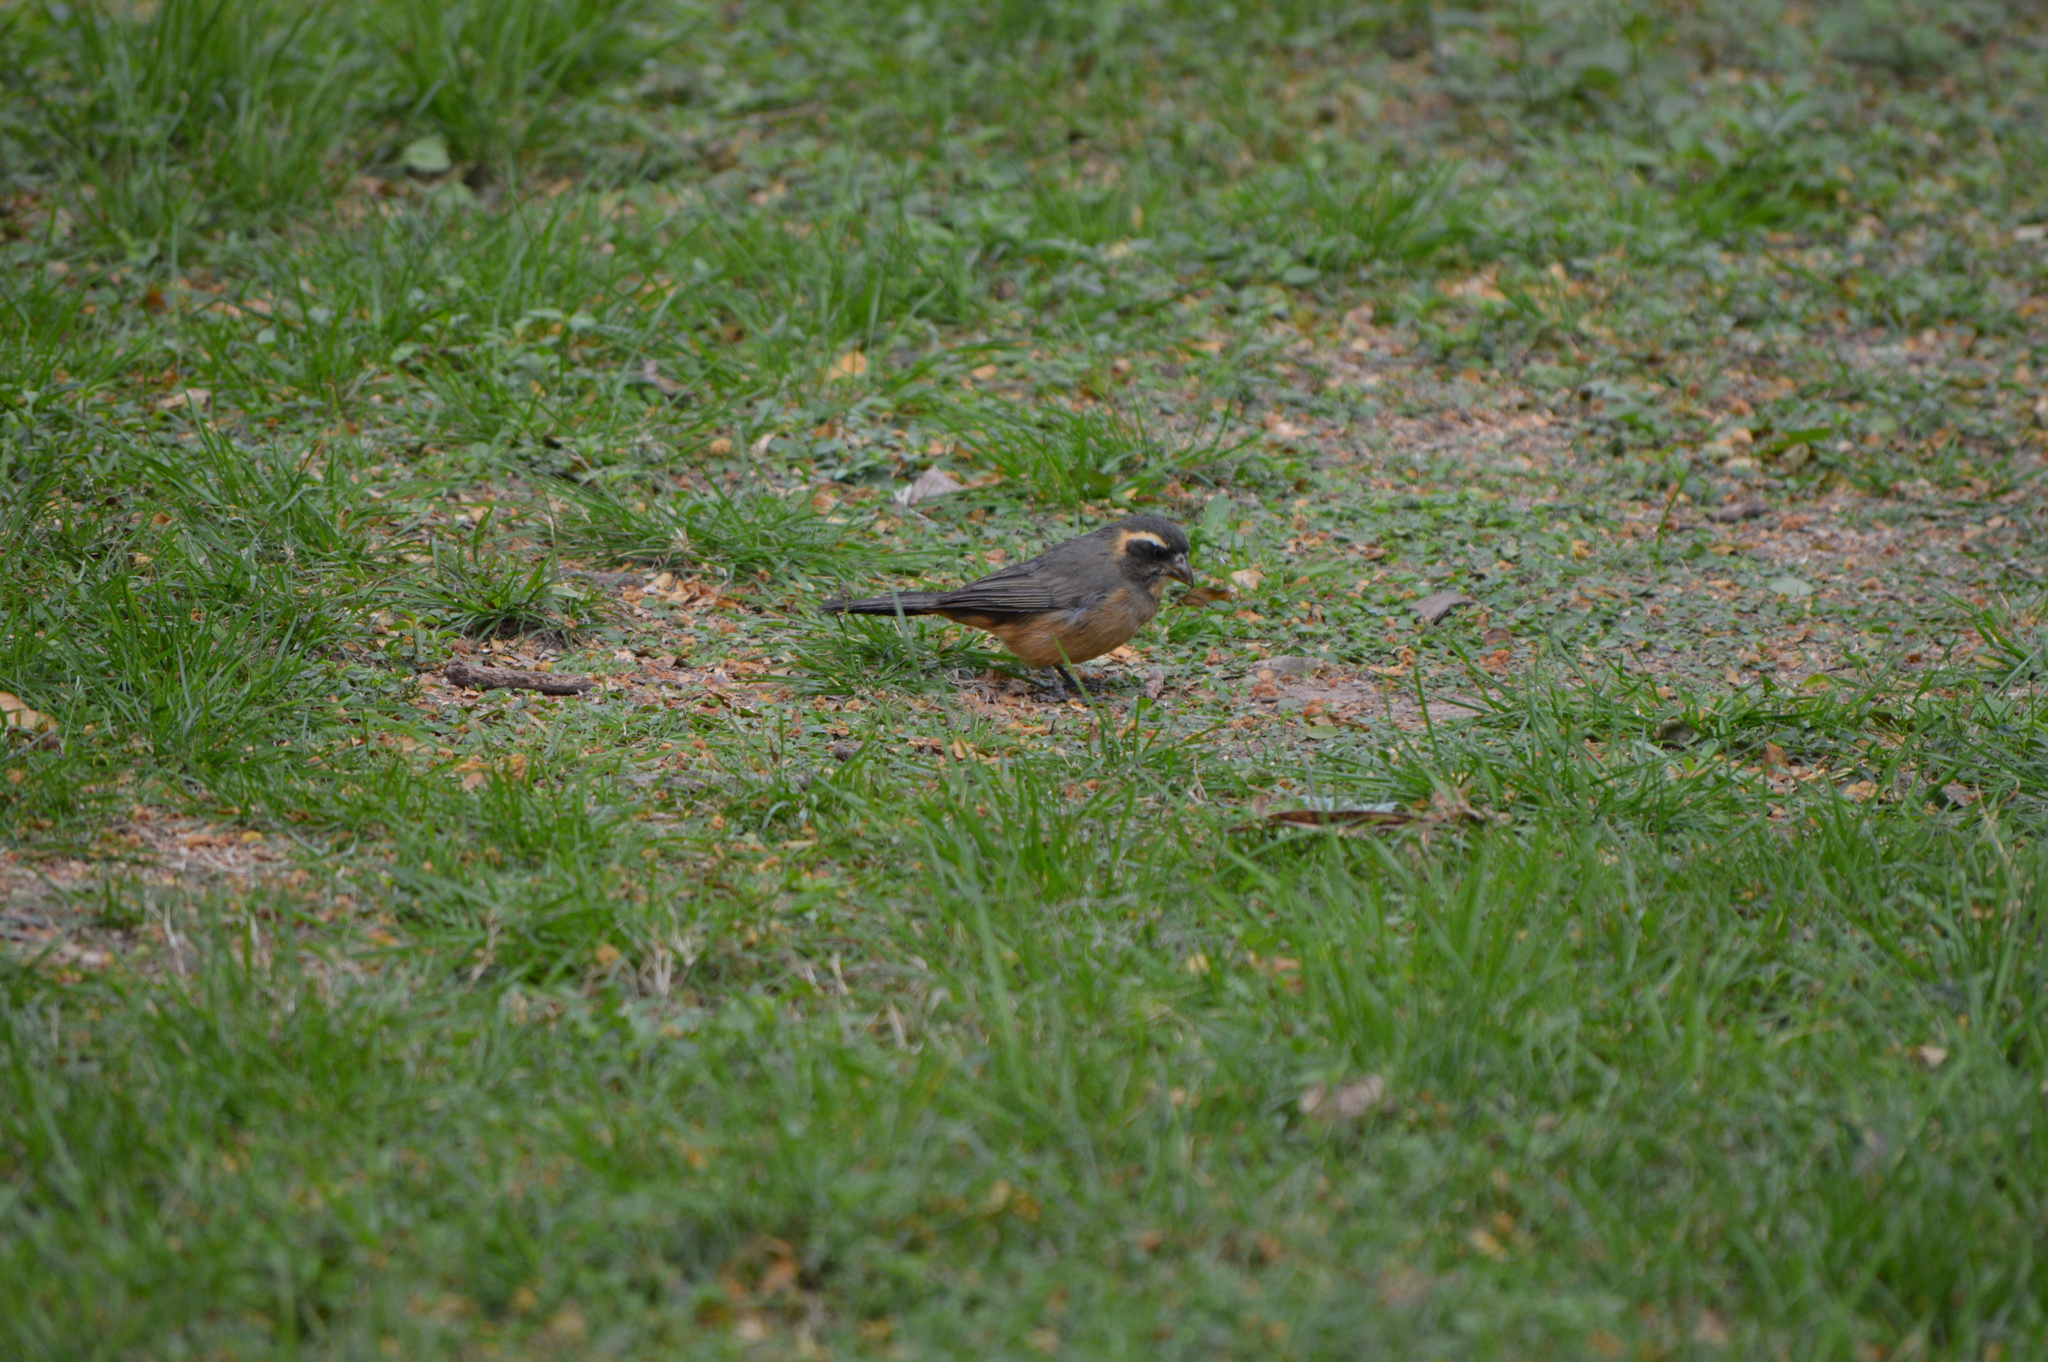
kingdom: Animalia
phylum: Chordata
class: Aves
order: Passeriformes
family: Thraupidae
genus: Saltator
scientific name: Saltator coerulescens
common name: Grayish saltator
